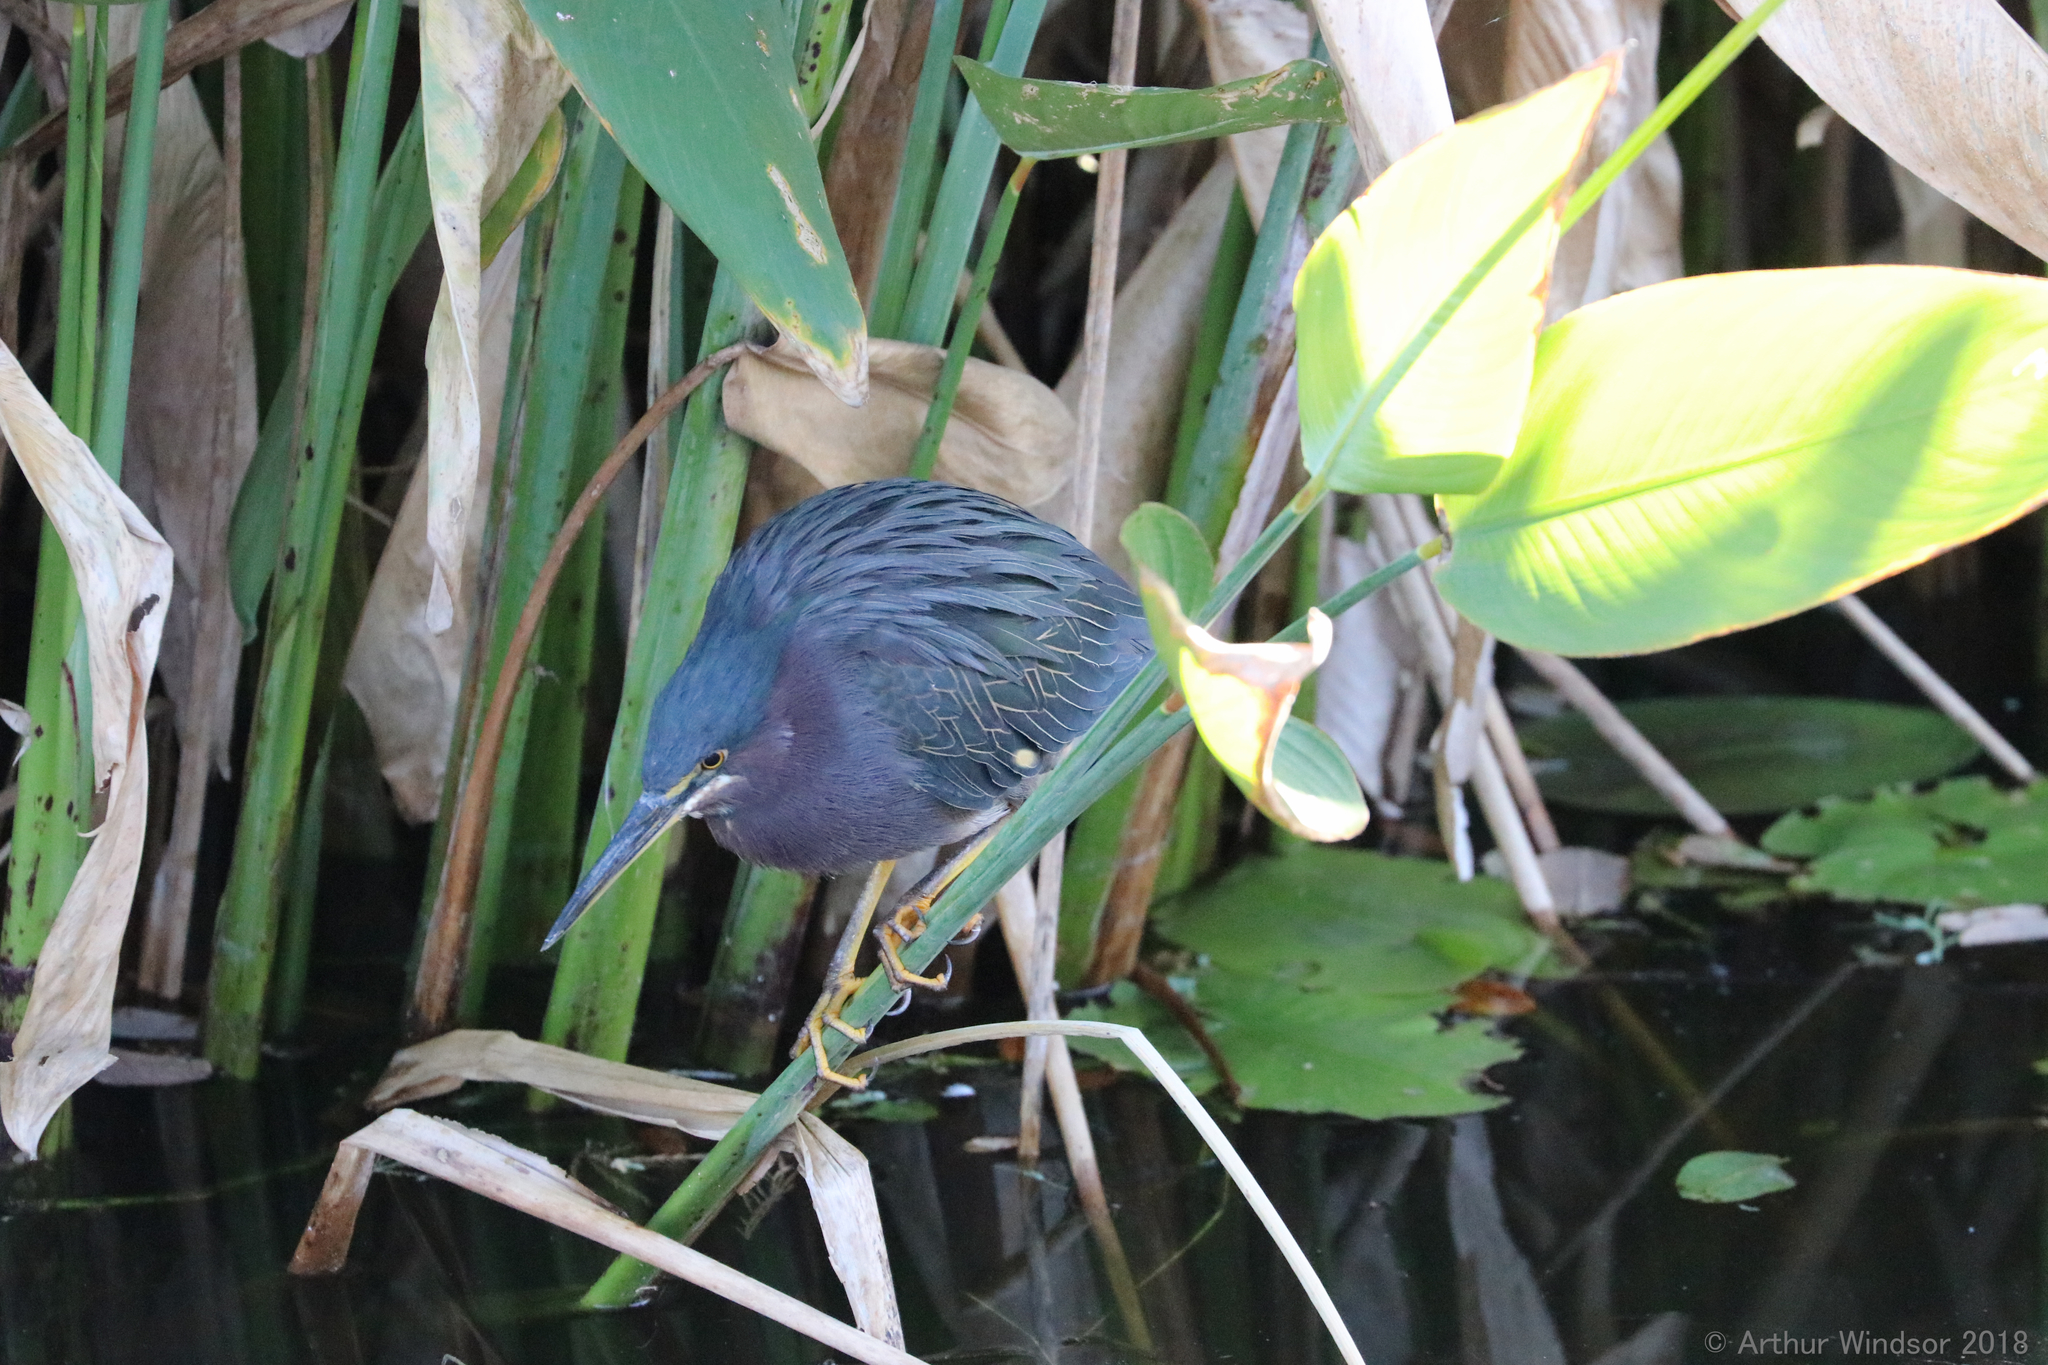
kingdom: Animalia
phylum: Chordata
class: Aves
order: Pelecaniformes
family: Ardeidae
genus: Butorides
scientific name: Butorides virescens
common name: Green heron
